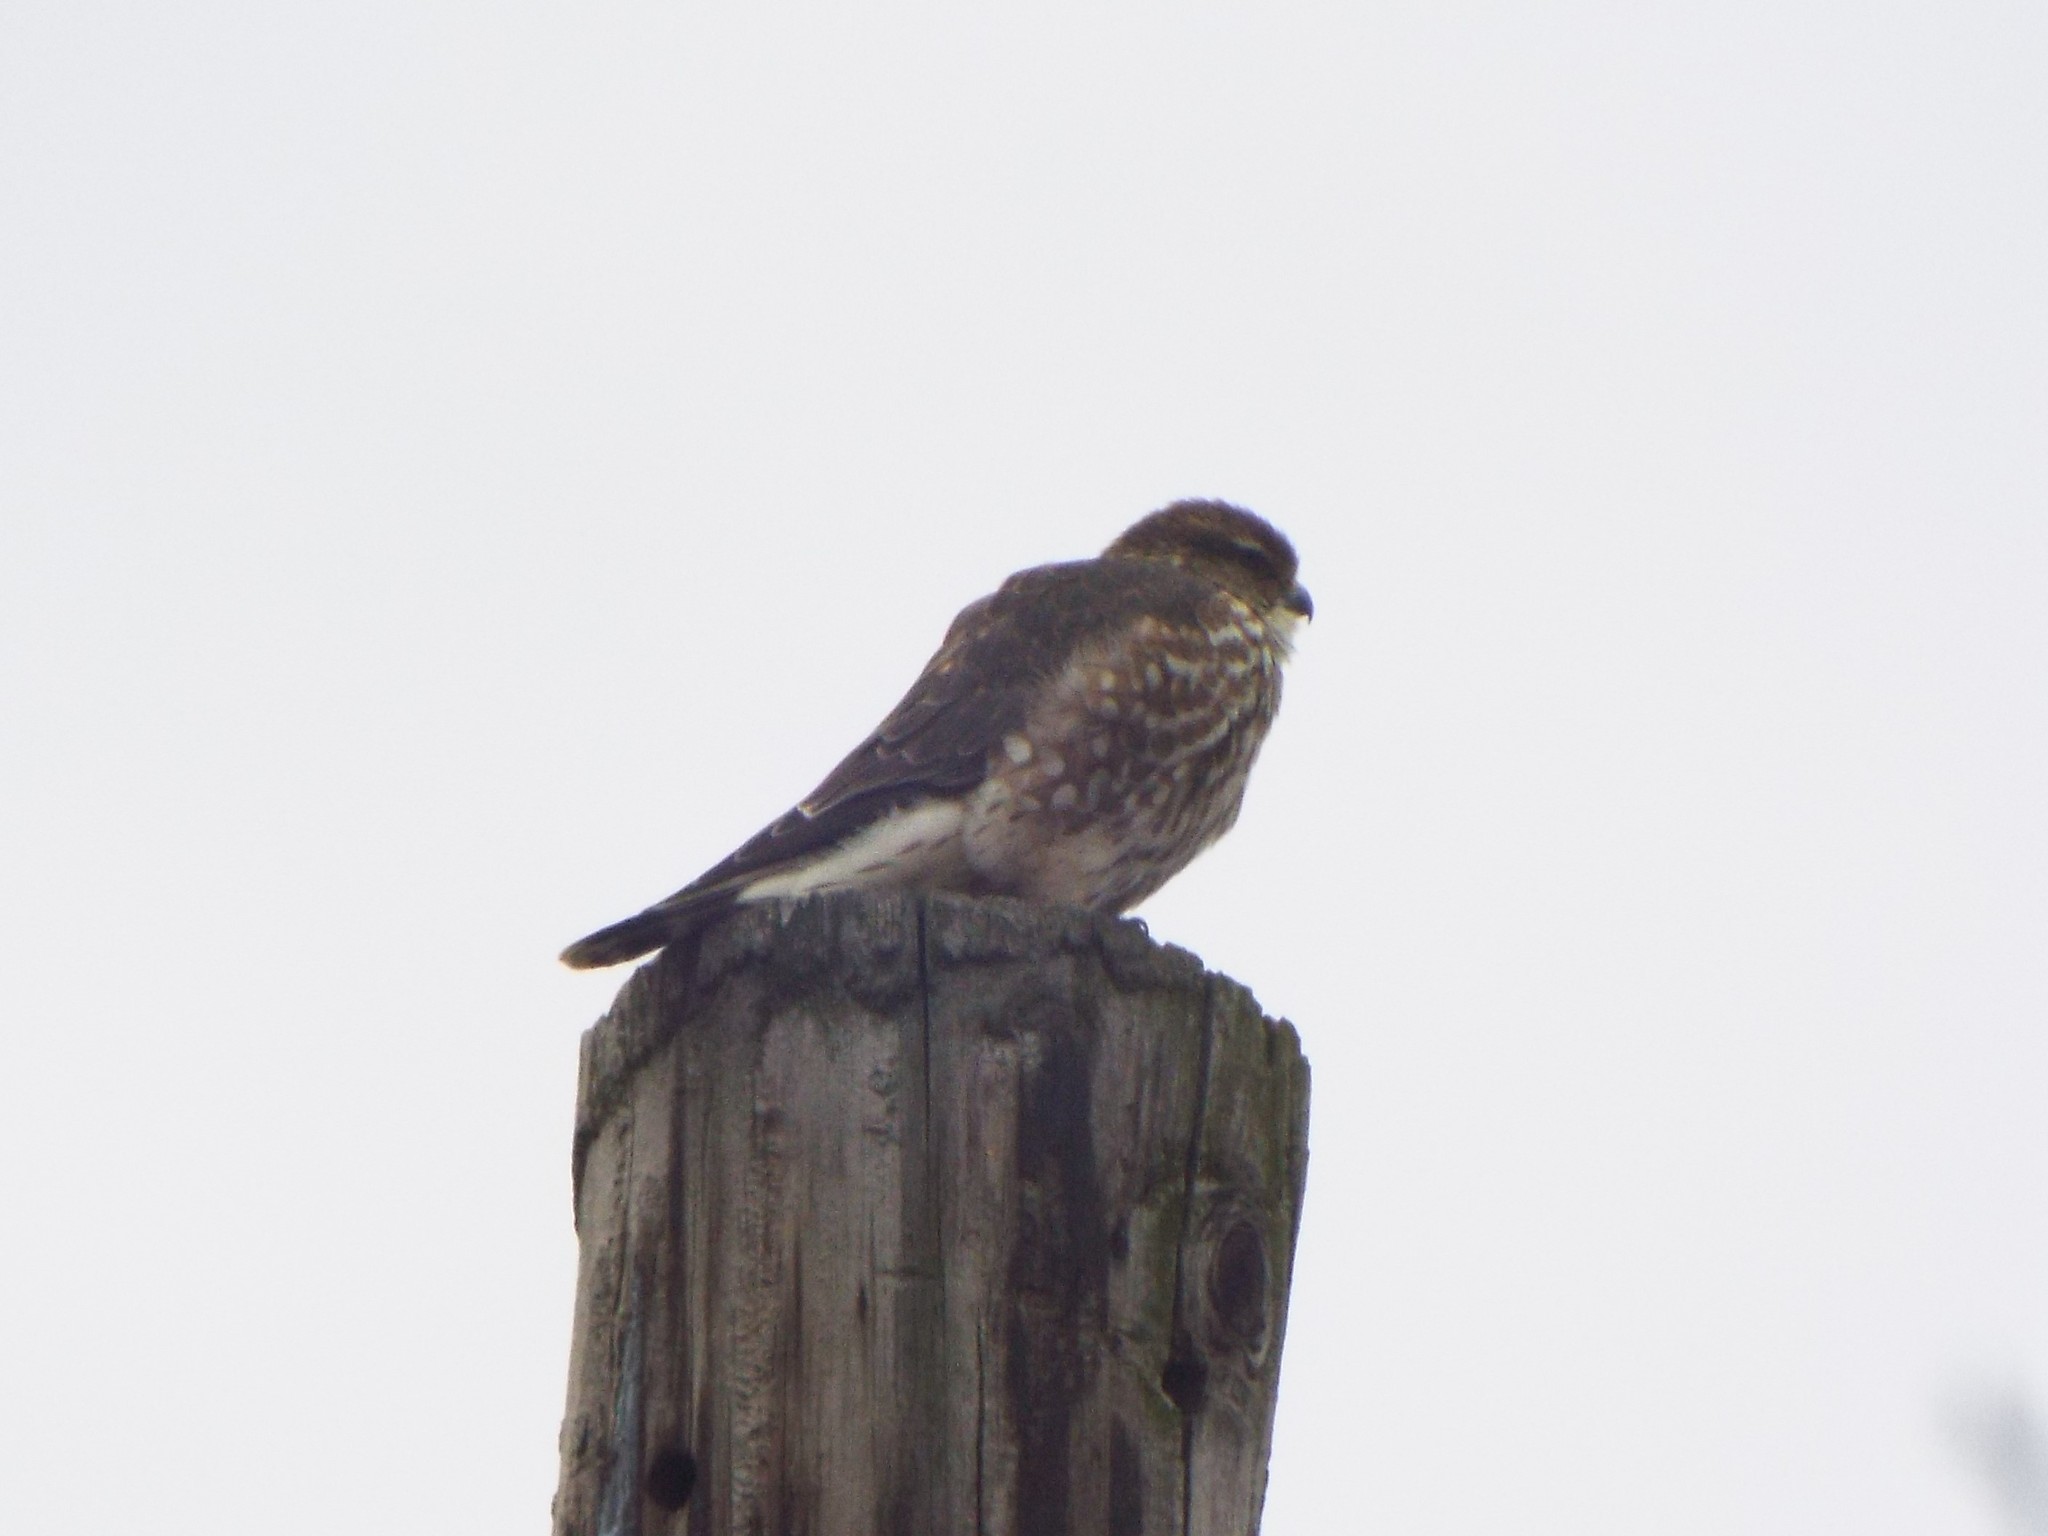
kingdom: Animalia
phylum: Chordata
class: Aves
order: Falconiformes
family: Falconidae
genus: Falco
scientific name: Falco columbarius
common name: Merlin
